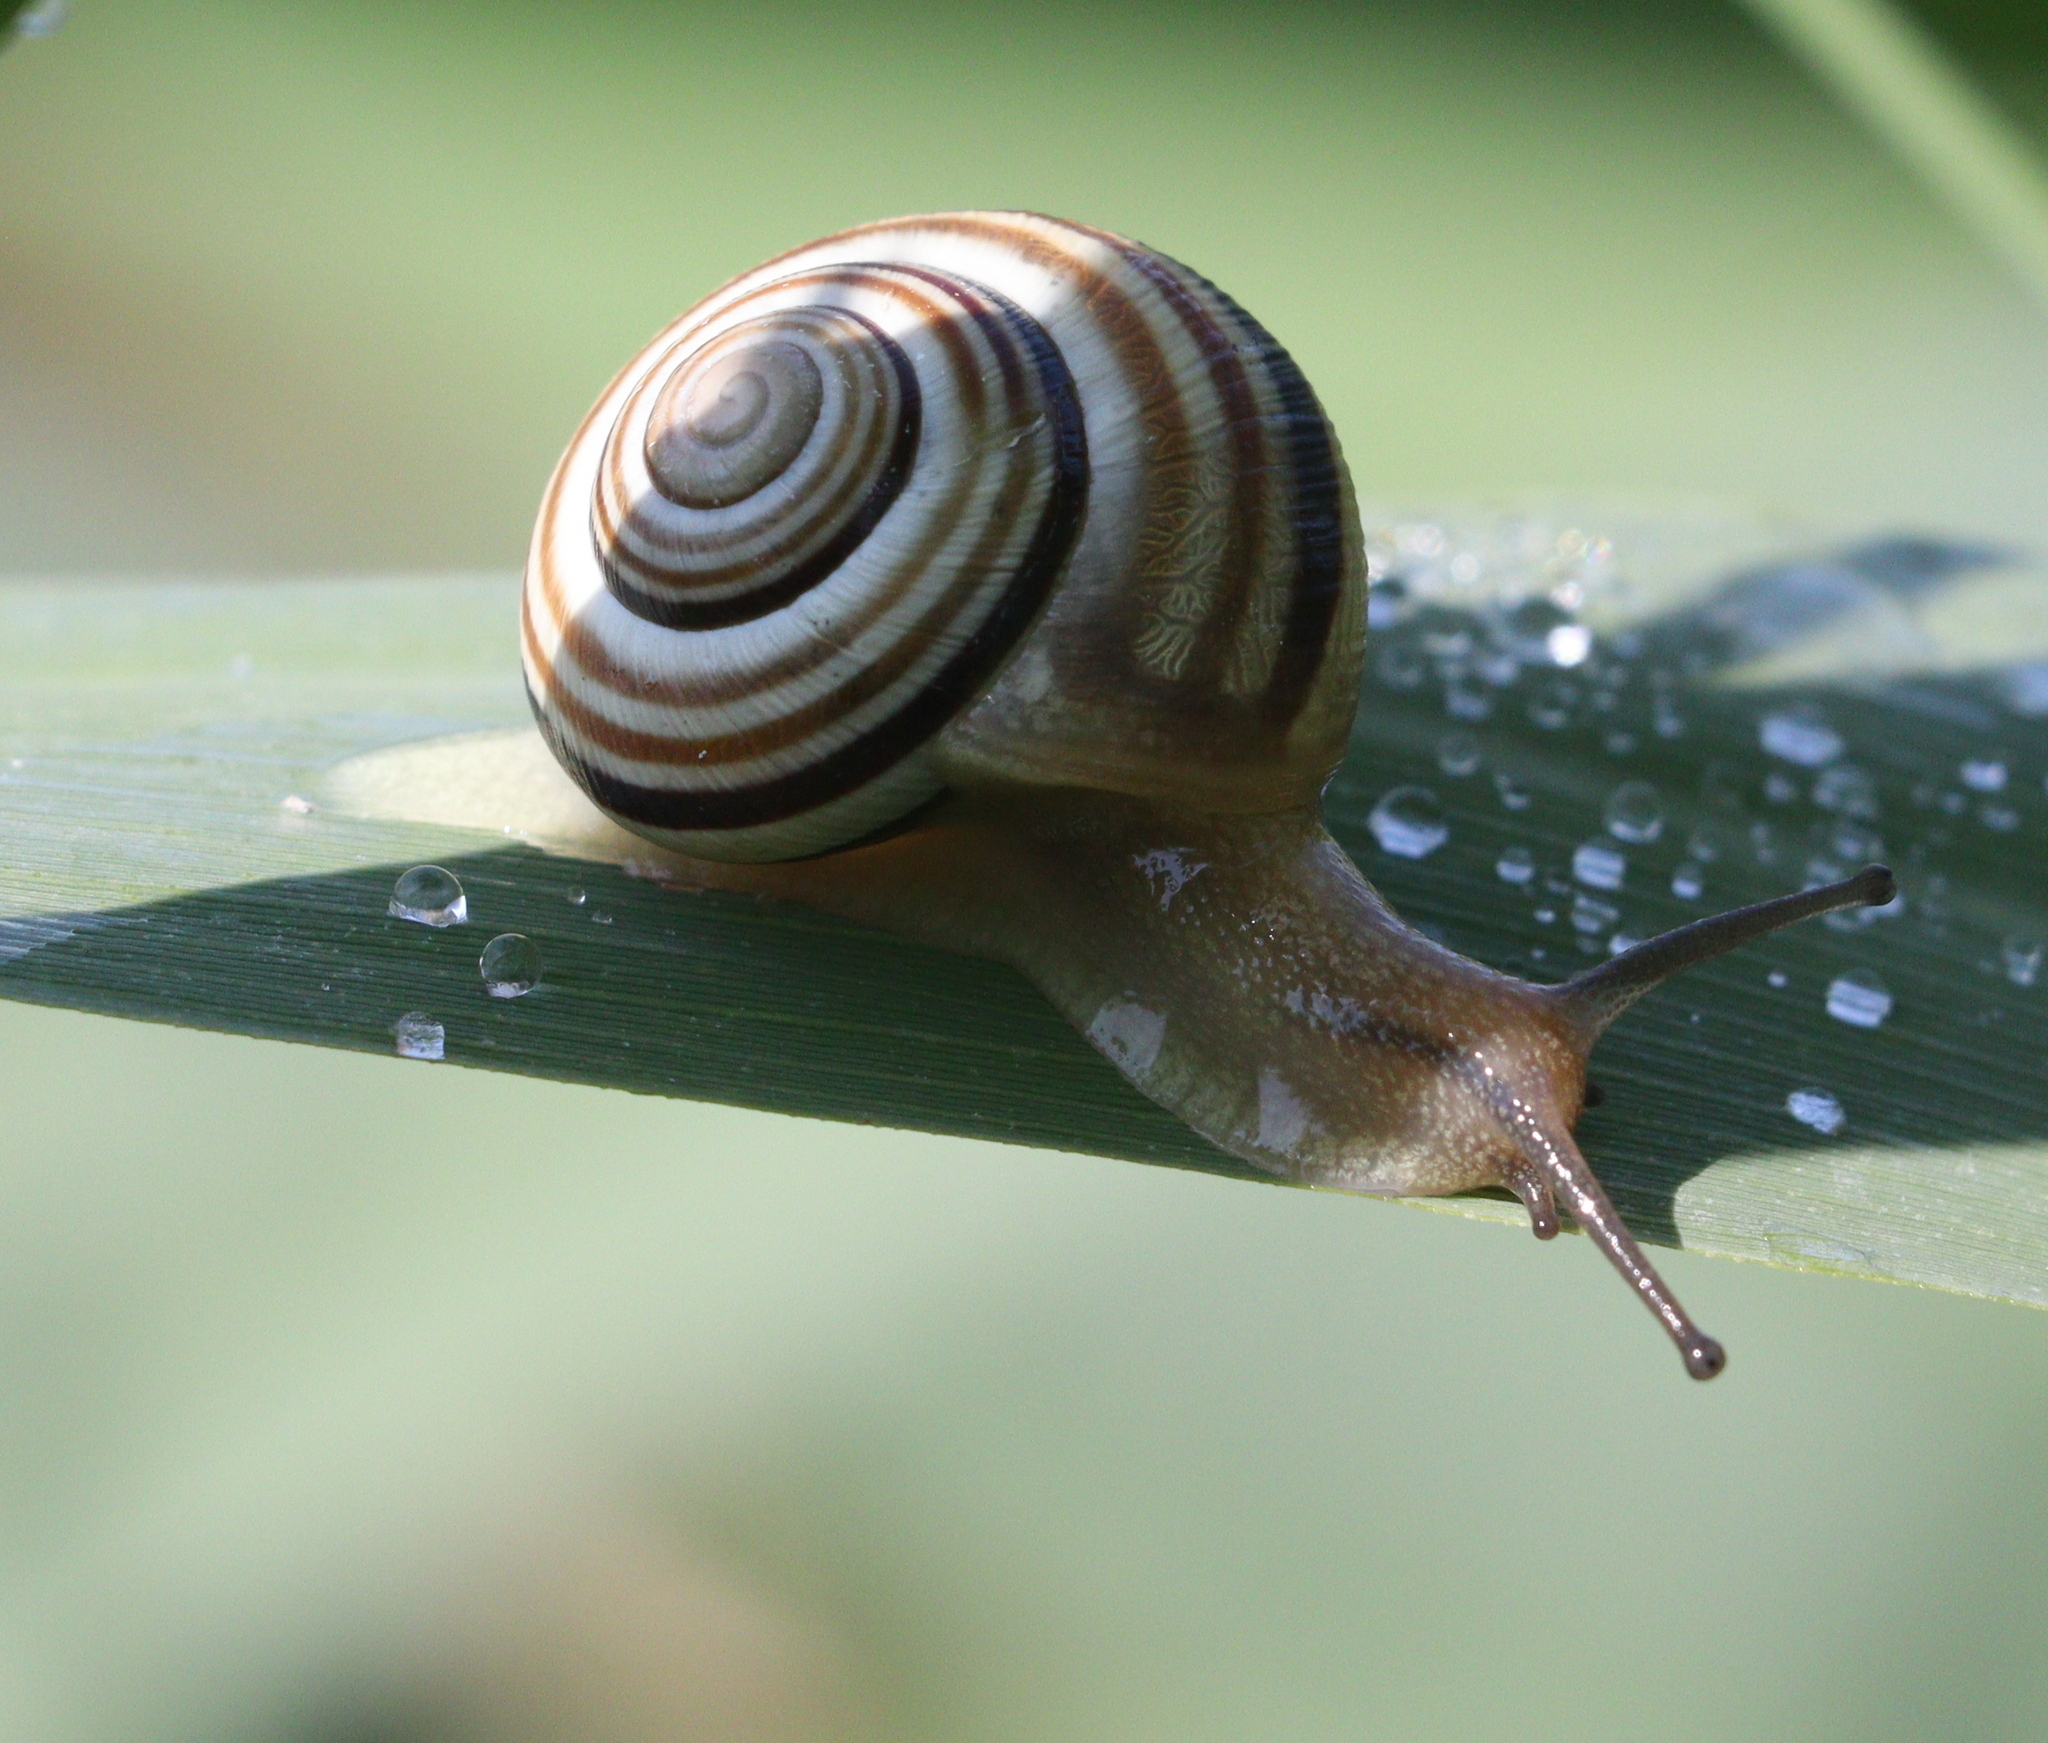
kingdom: Animalia
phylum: Mollusca
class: Gastropoda
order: Stylommatophora
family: Helicidae
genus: Caucasotachea
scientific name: Caucasotachea vindobonensis
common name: European helicid land snail
